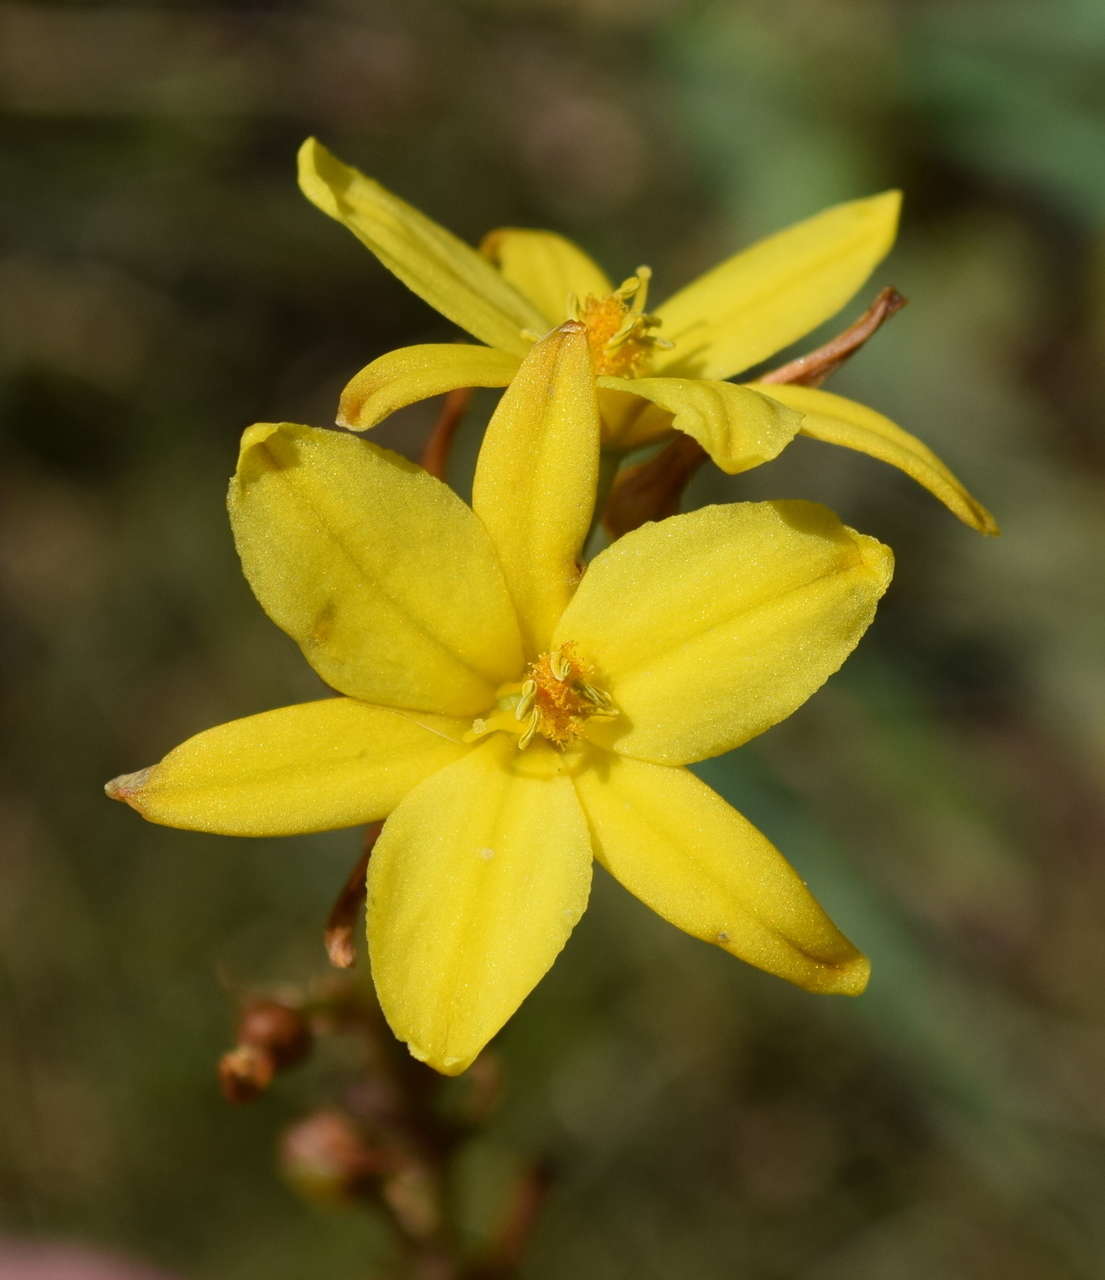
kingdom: Plantae
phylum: Tracheophyta
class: Liliopsida
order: Asparagales
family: Asphodelaceae
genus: Bulbine
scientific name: Bulbine bulbosa
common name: Golden-lily
